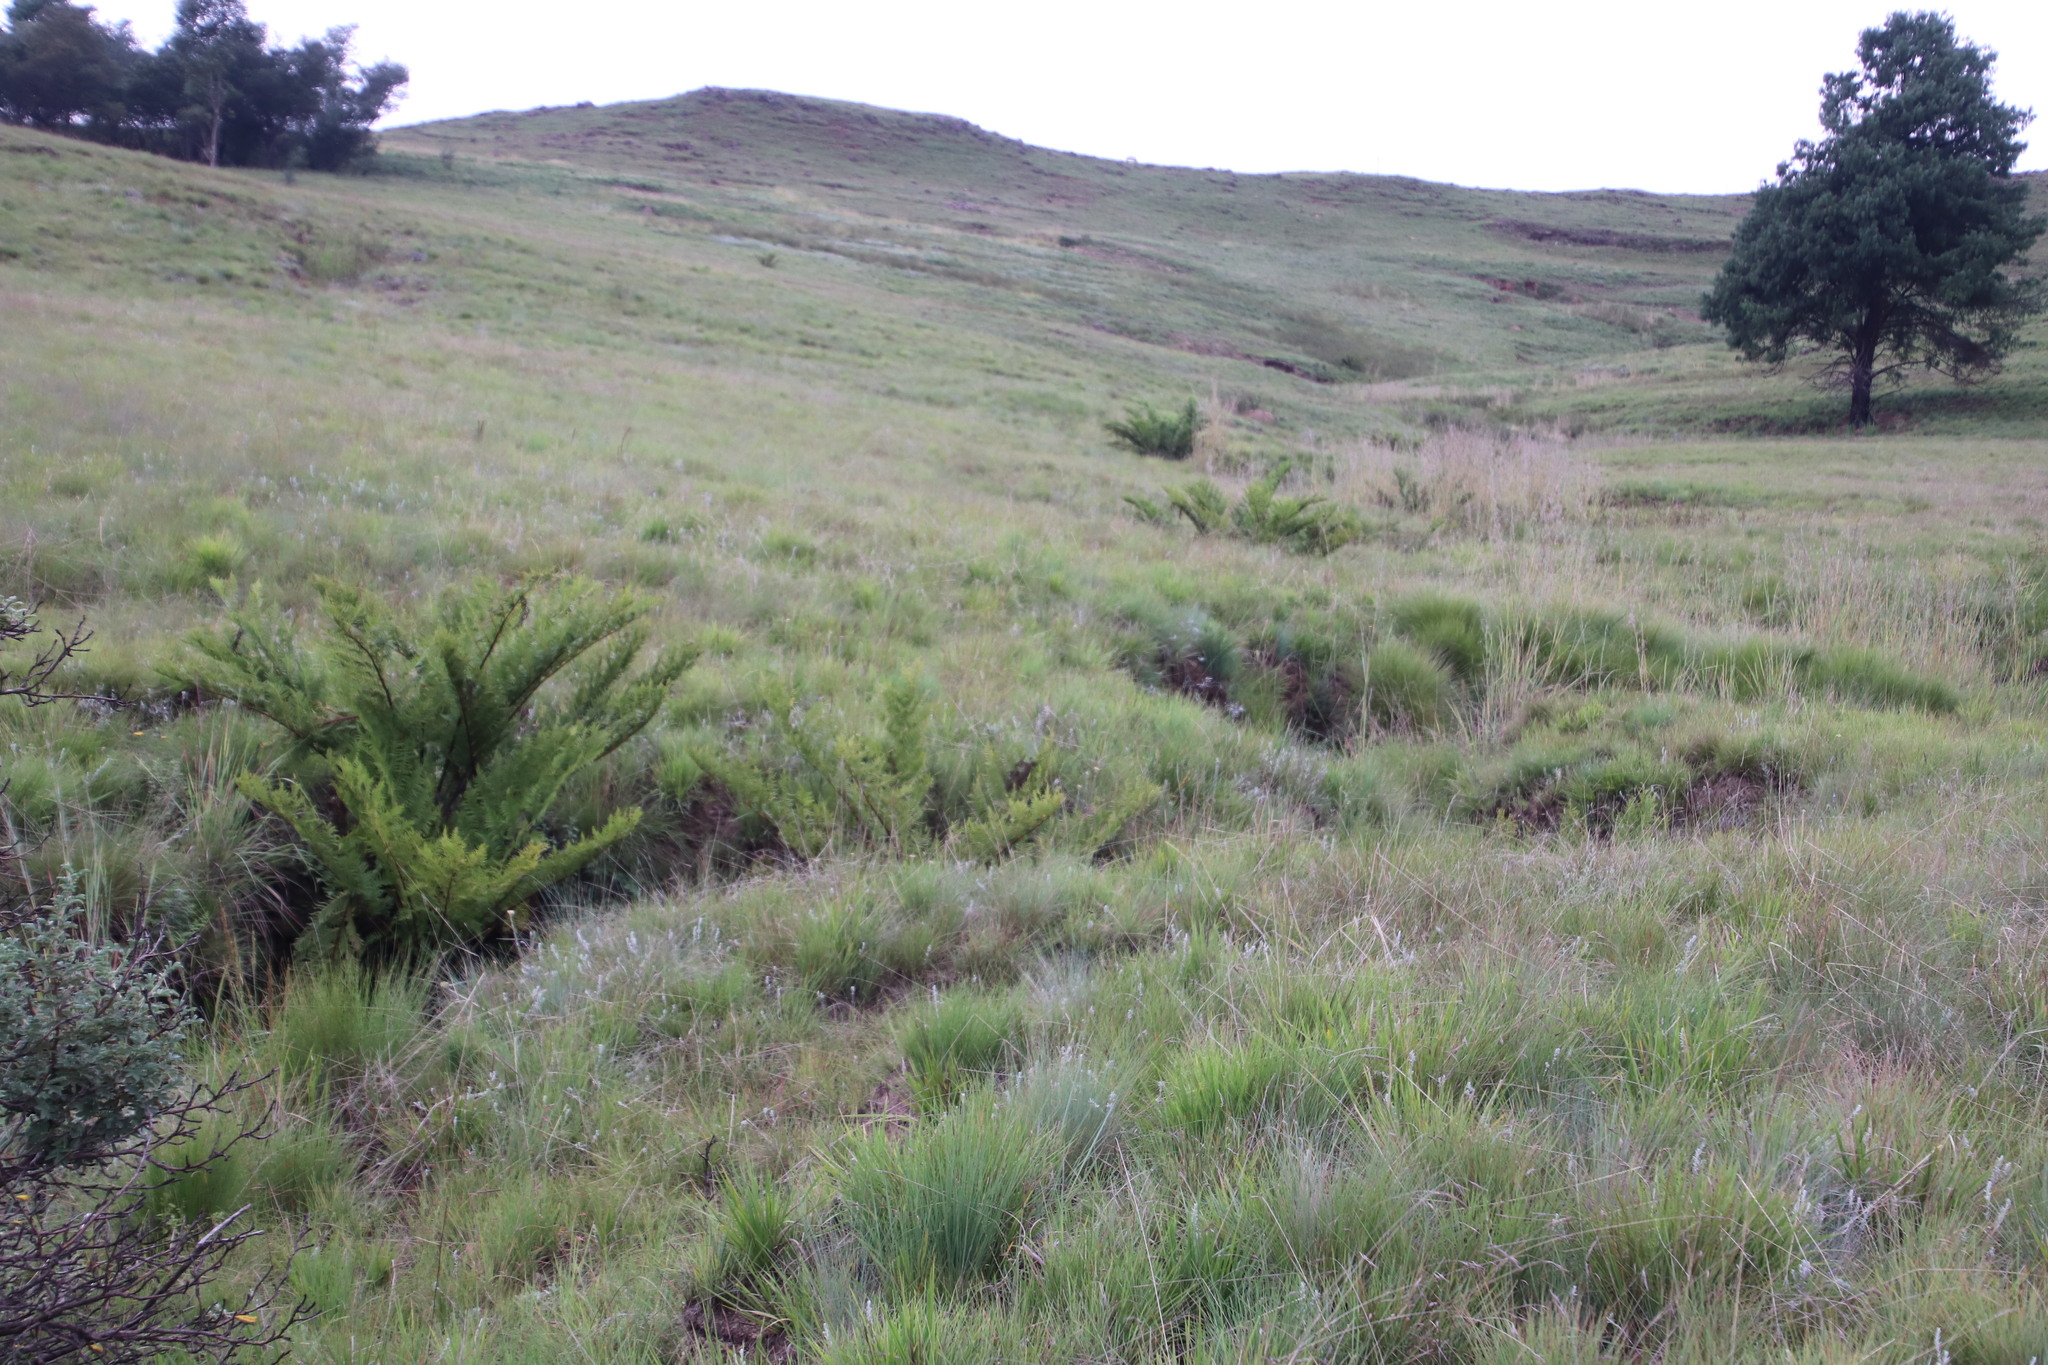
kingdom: Plantae
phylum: Tracheophyta
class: Polypodiopsida
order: Cyatheales
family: Cyatheaceae
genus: Alsophila
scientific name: Alsophila dregei
